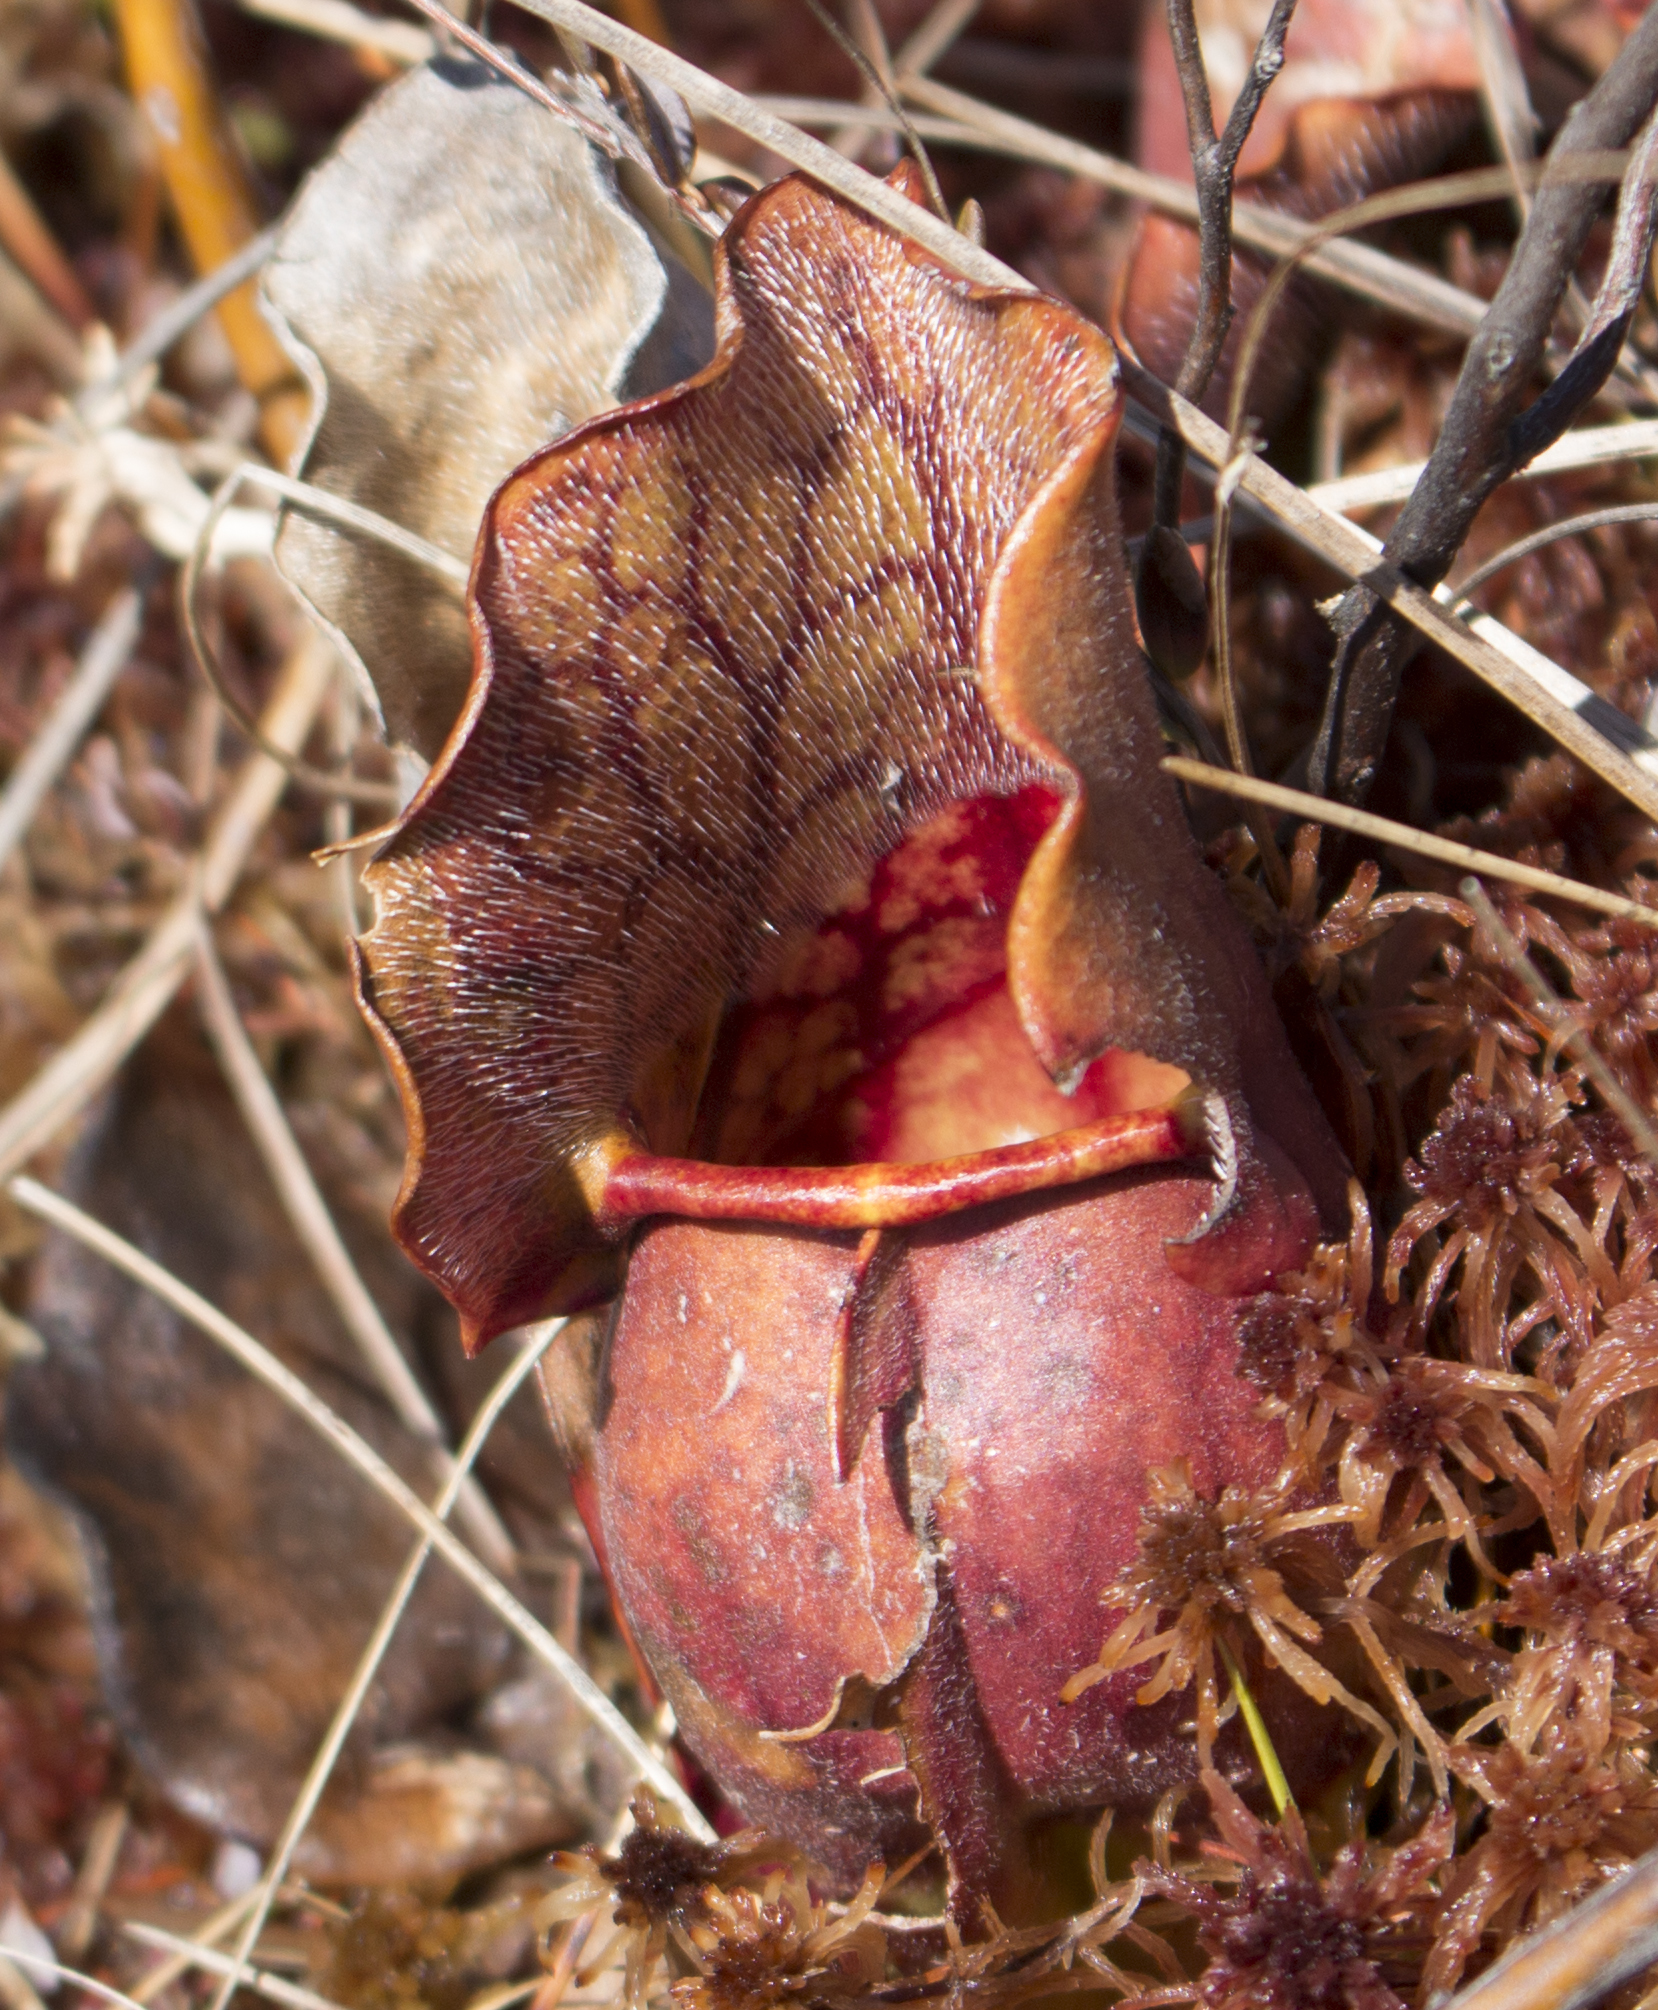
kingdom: Plantae
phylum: Tracheophyta
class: Magnoliopsida
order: Ericales
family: Sarraceniaceae
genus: Sarracenia
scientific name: Sarracenia purpurea
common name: Pitcherplant
